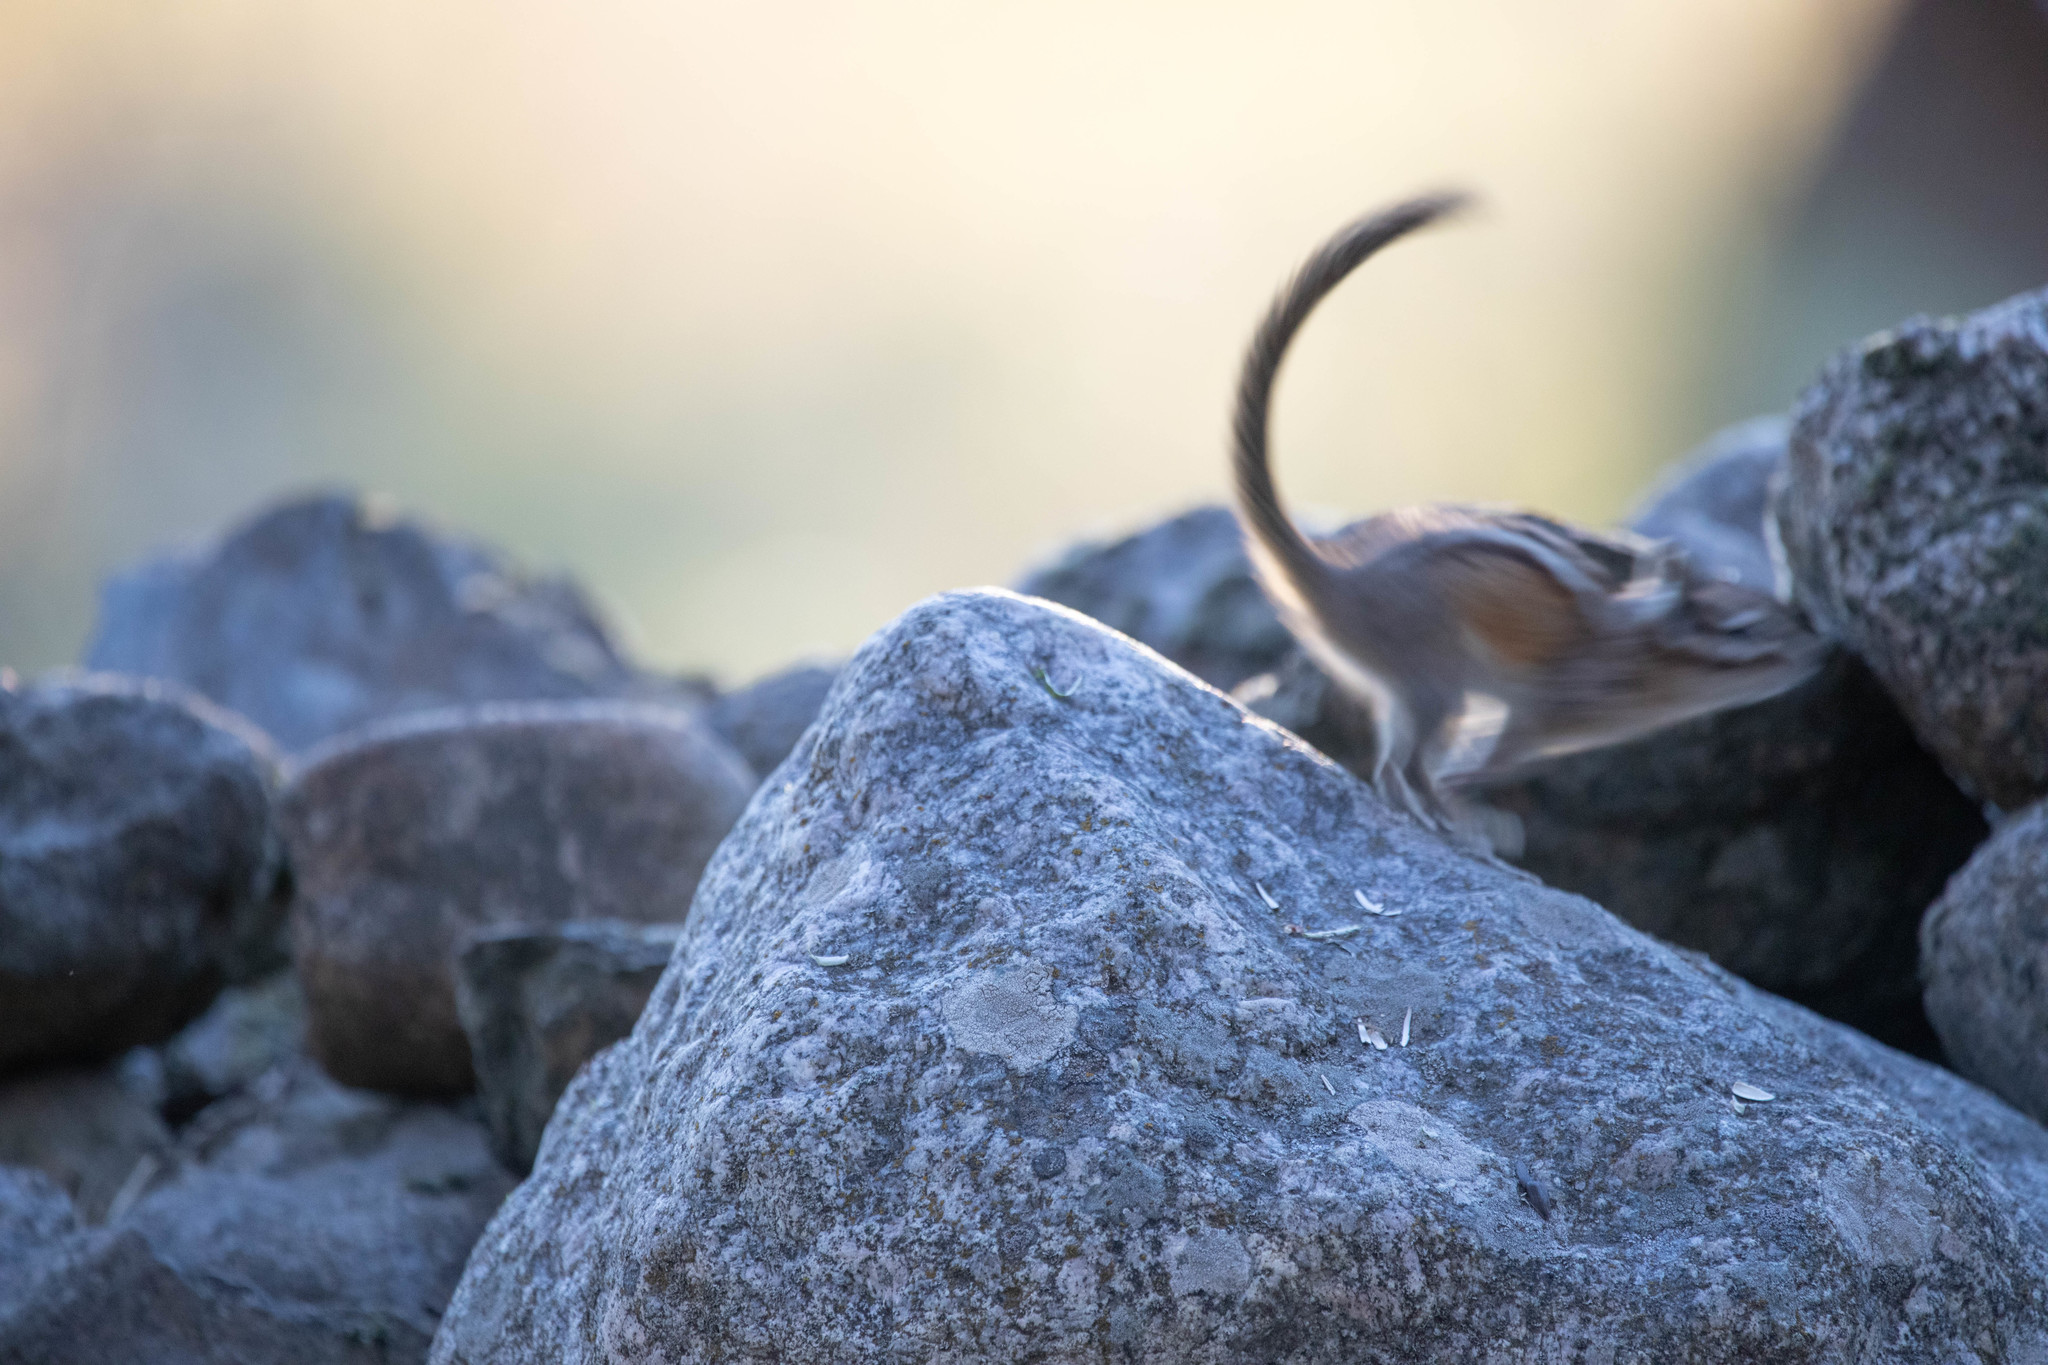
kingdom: Animalia
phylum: Chordata
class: Mammalia
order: Rodentia
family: Sciuridae
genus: Tamias
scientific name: Tamias amoenus
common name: Yellow-pine chipmunk
